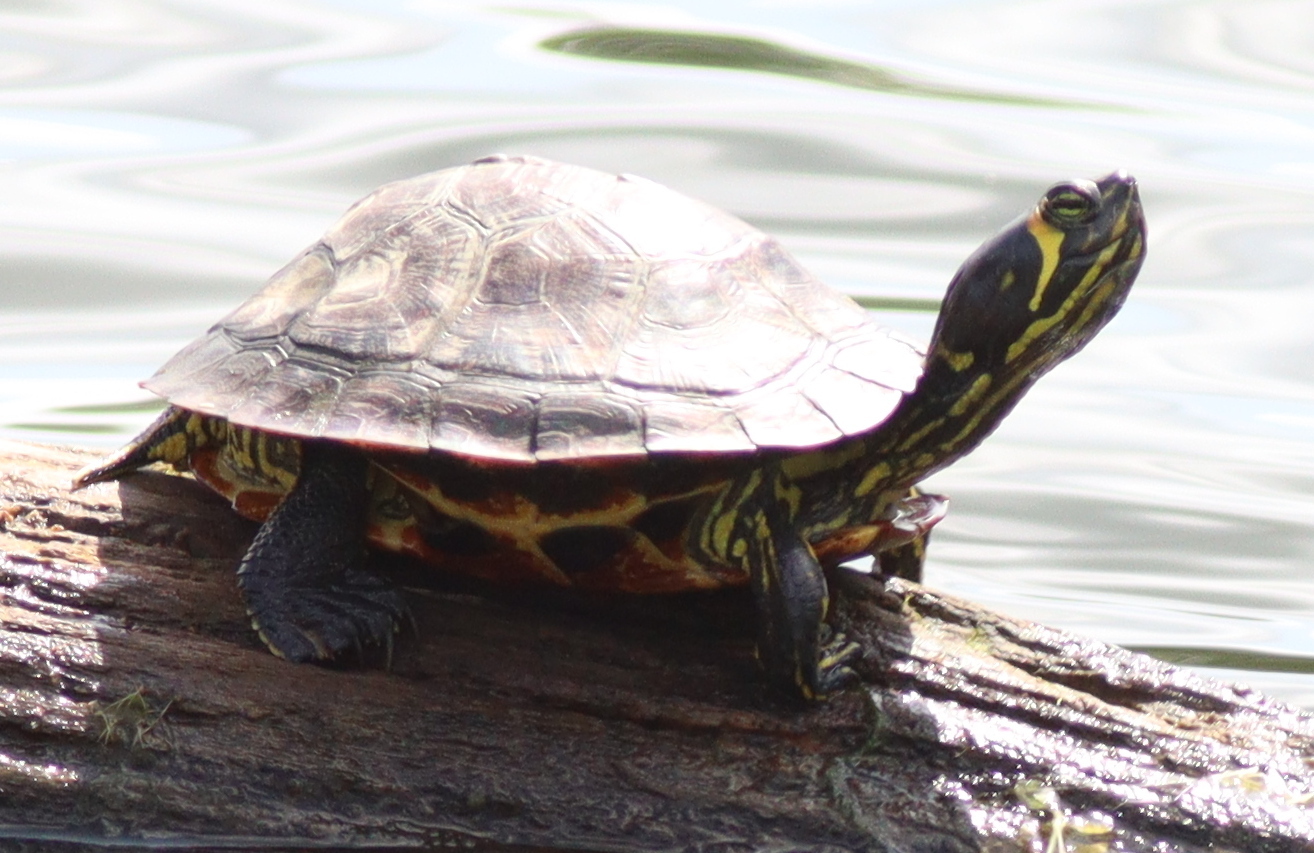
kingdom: Animalia
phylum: Chordata
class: Testudines
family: Emydidae
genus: Trachemys
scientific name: Trachemys scripta
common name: Slider
